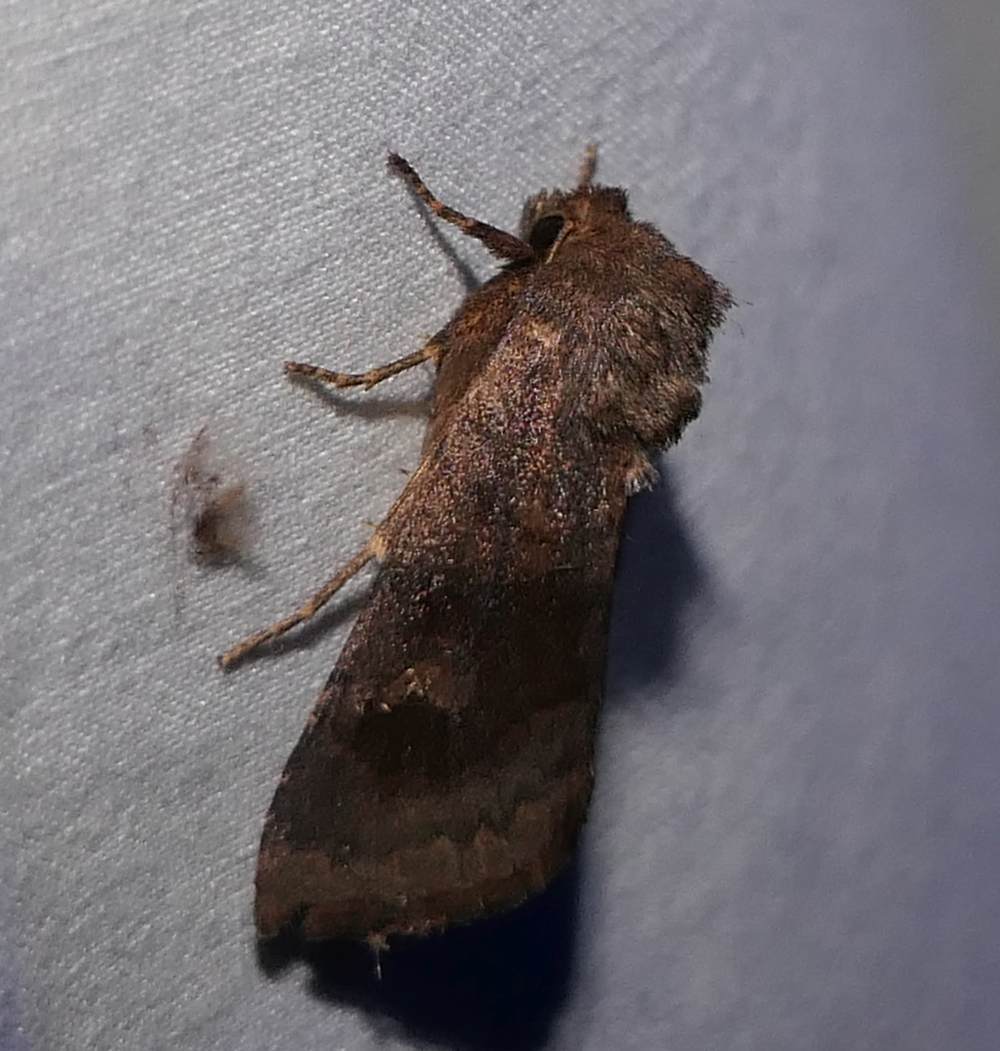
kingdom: Animalia
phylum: Arthropoda
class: Insecta
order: Lepidoptera
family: Noctuidae
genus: Nephelodes
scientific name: Nephelodes minians
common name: Bronzed cutworm
